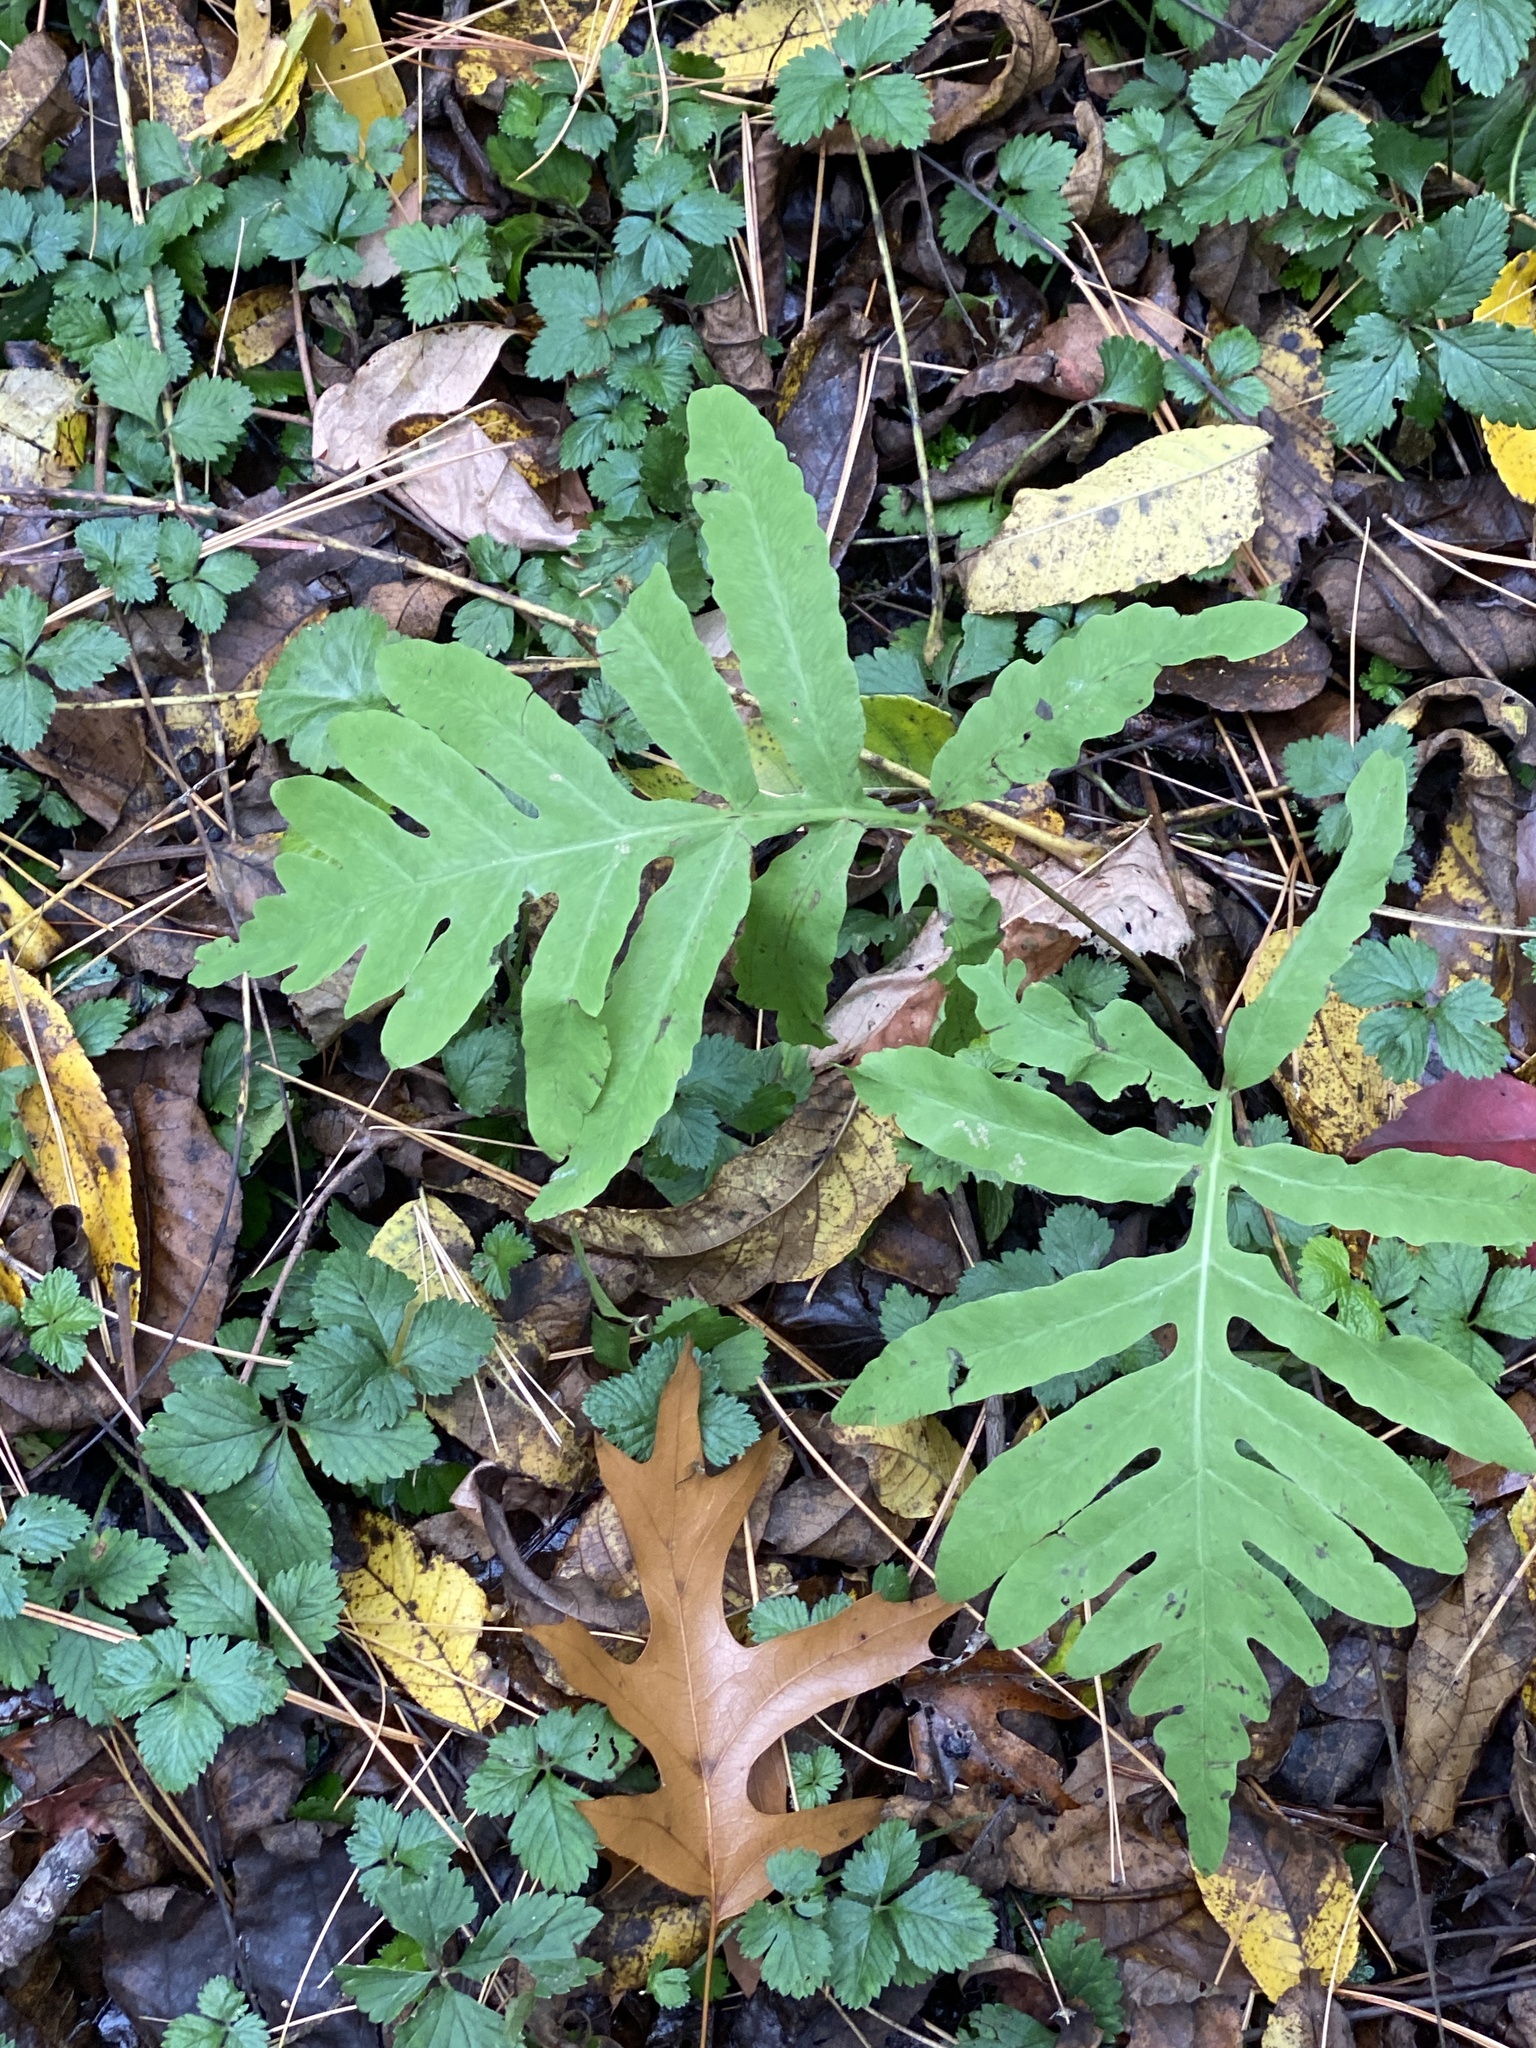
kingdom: Plantae
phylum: Tracheophyta
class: Polypodiopsida
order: Polypodiales
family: Onocleaceae
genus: Onoclea
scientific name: Onoclea sensibilis
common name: Sensitive fern
